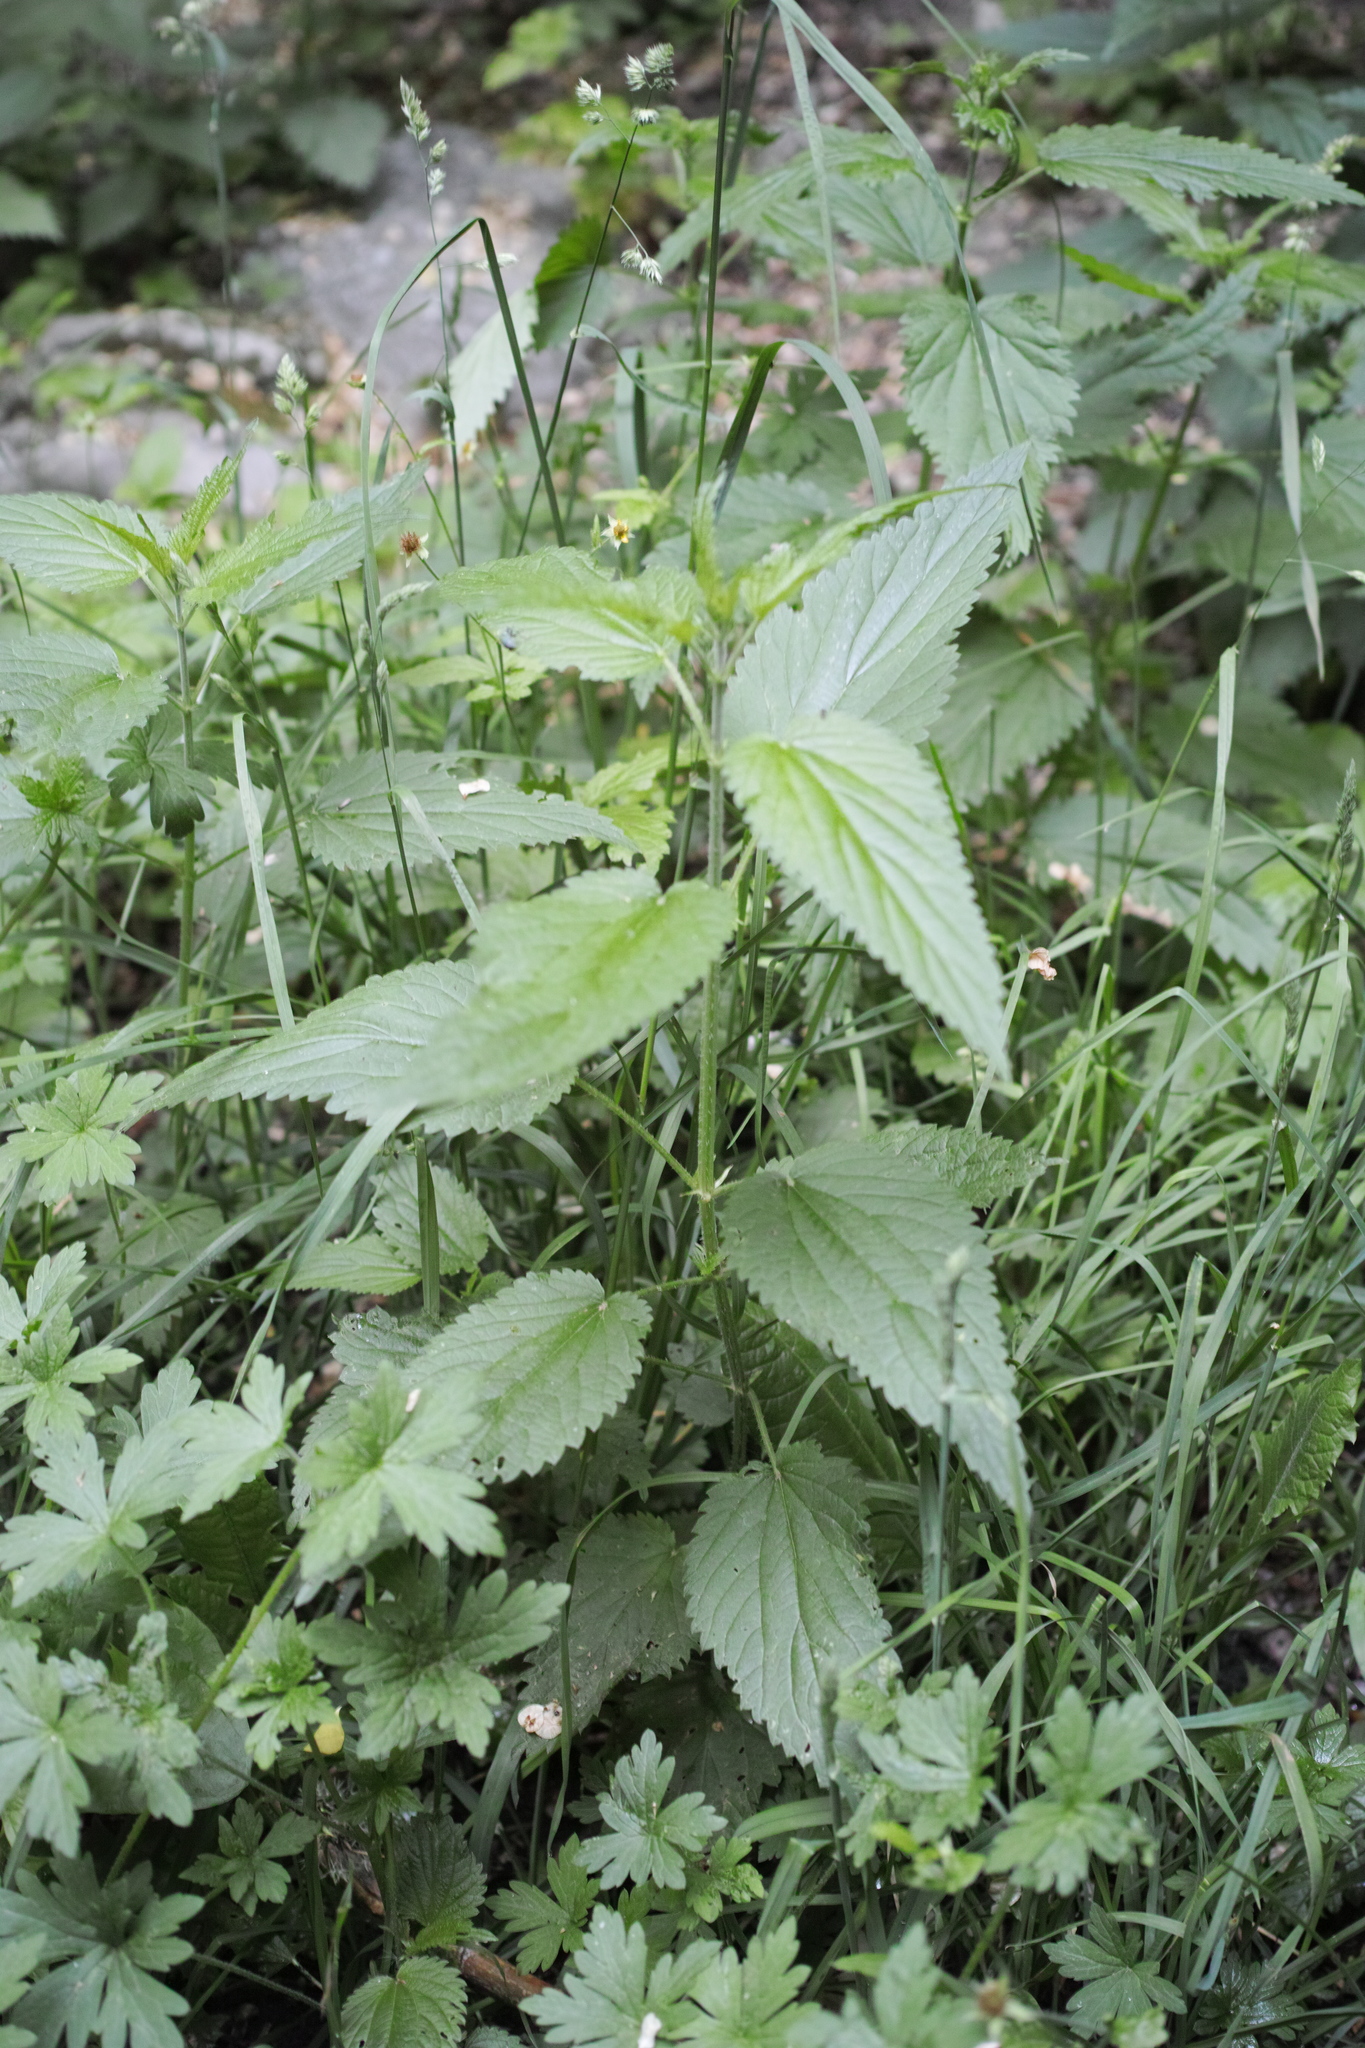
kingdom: Plantae
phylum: Tracheophyta
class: Magnoliopsida
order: Rosales
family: Urticaceae
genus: Urtica
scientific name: Urtica dioica
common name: Common nettle
